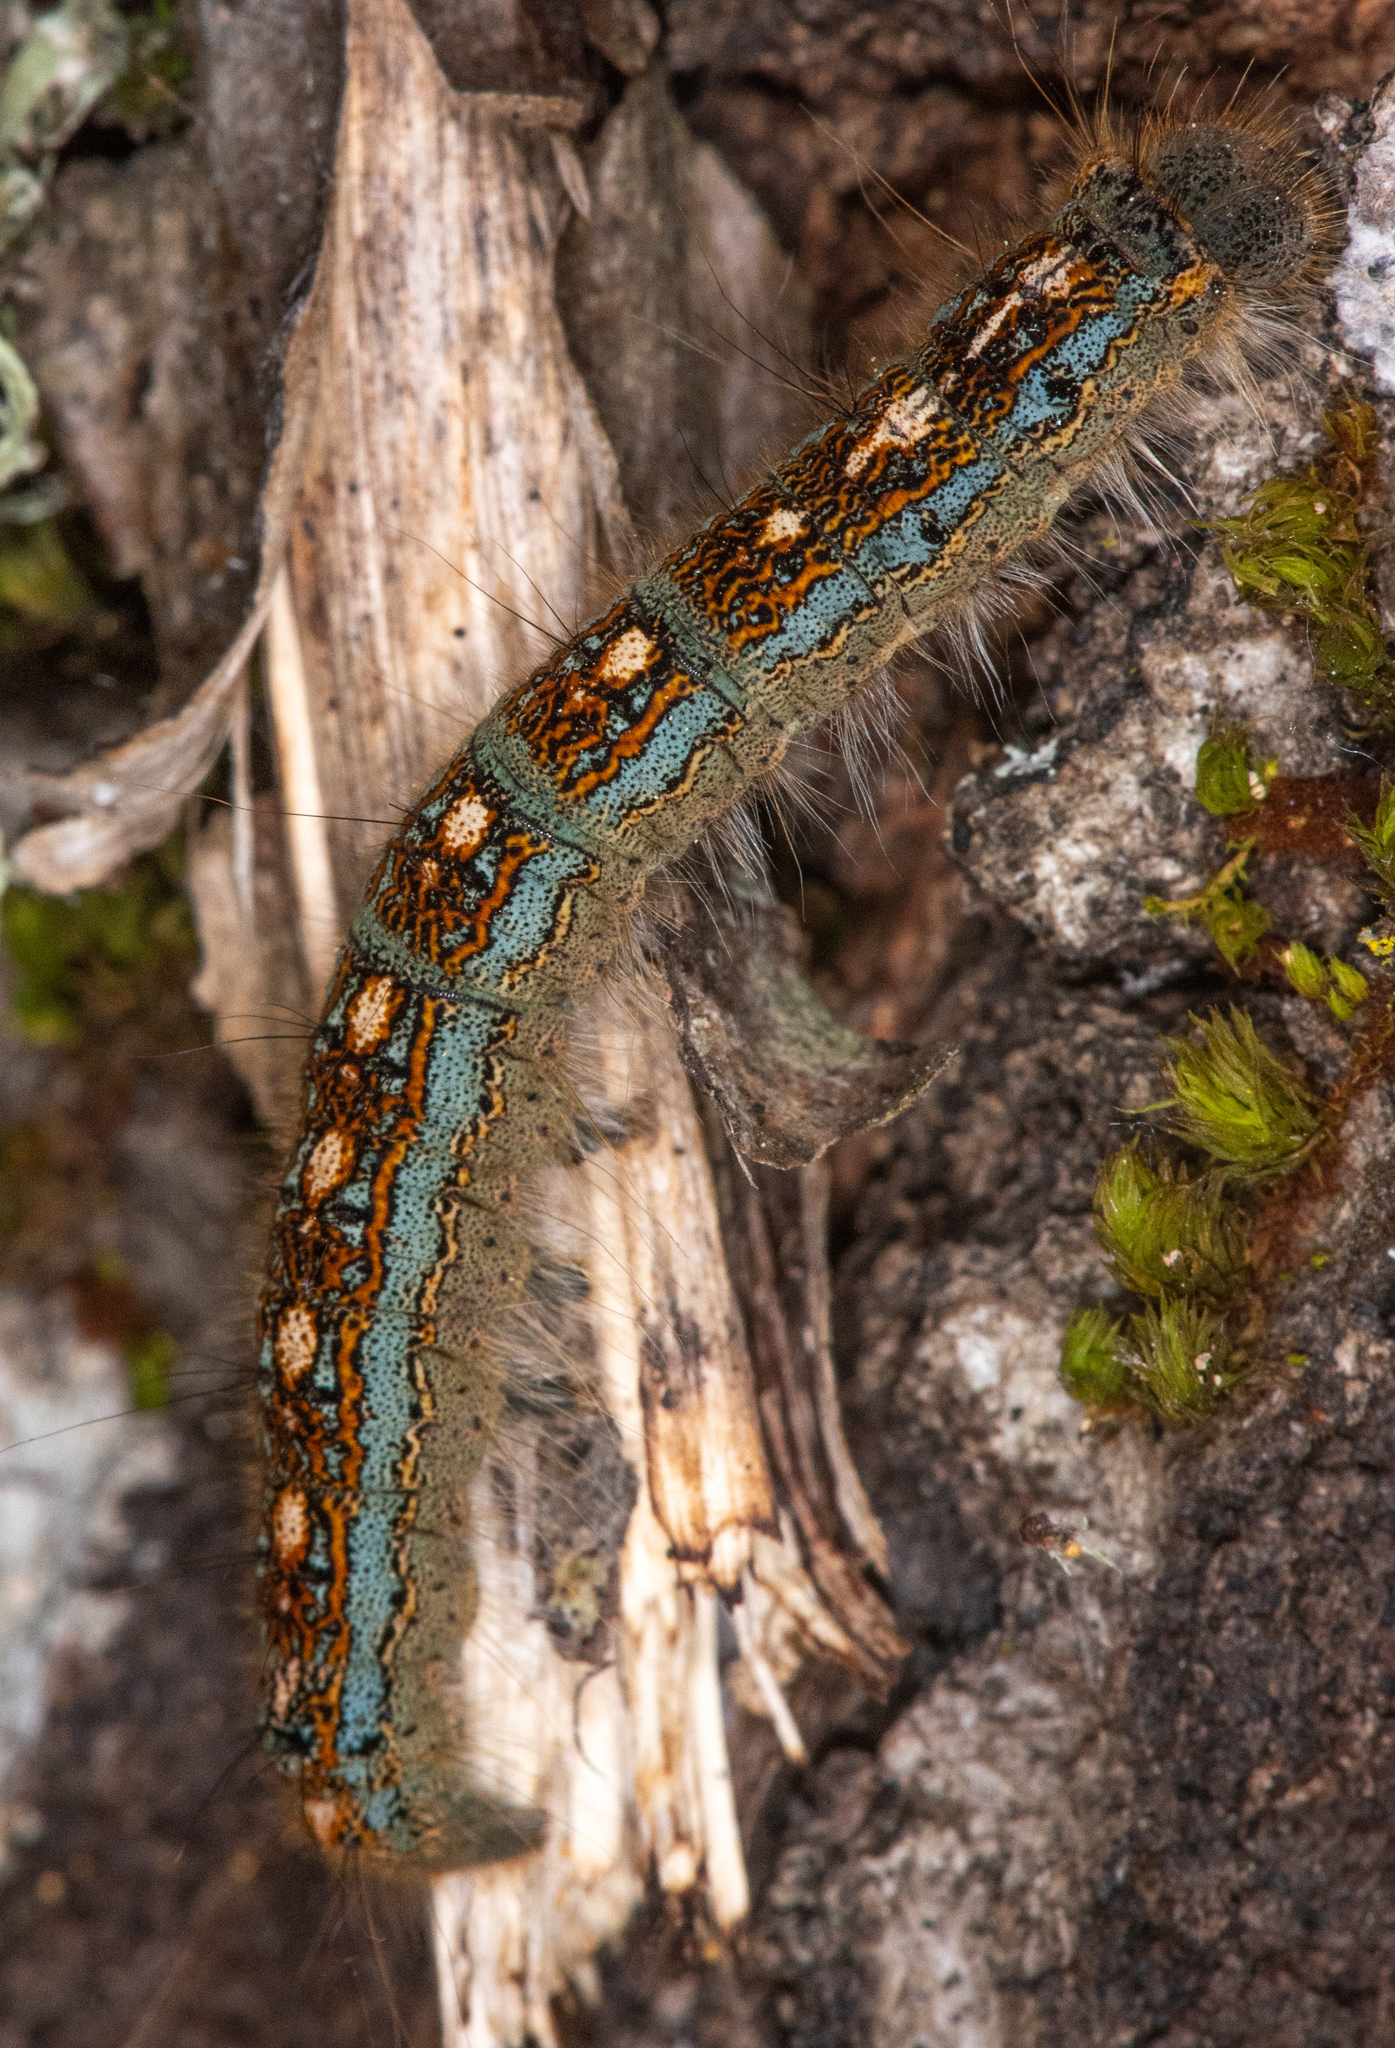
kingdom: Animalia
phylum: Arthropoda
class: Insecta
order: Lepidoptera
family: Lasiocampidae
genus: Malacosoma
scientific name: Malacosoma disstria
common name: Forest tent caterpillar
